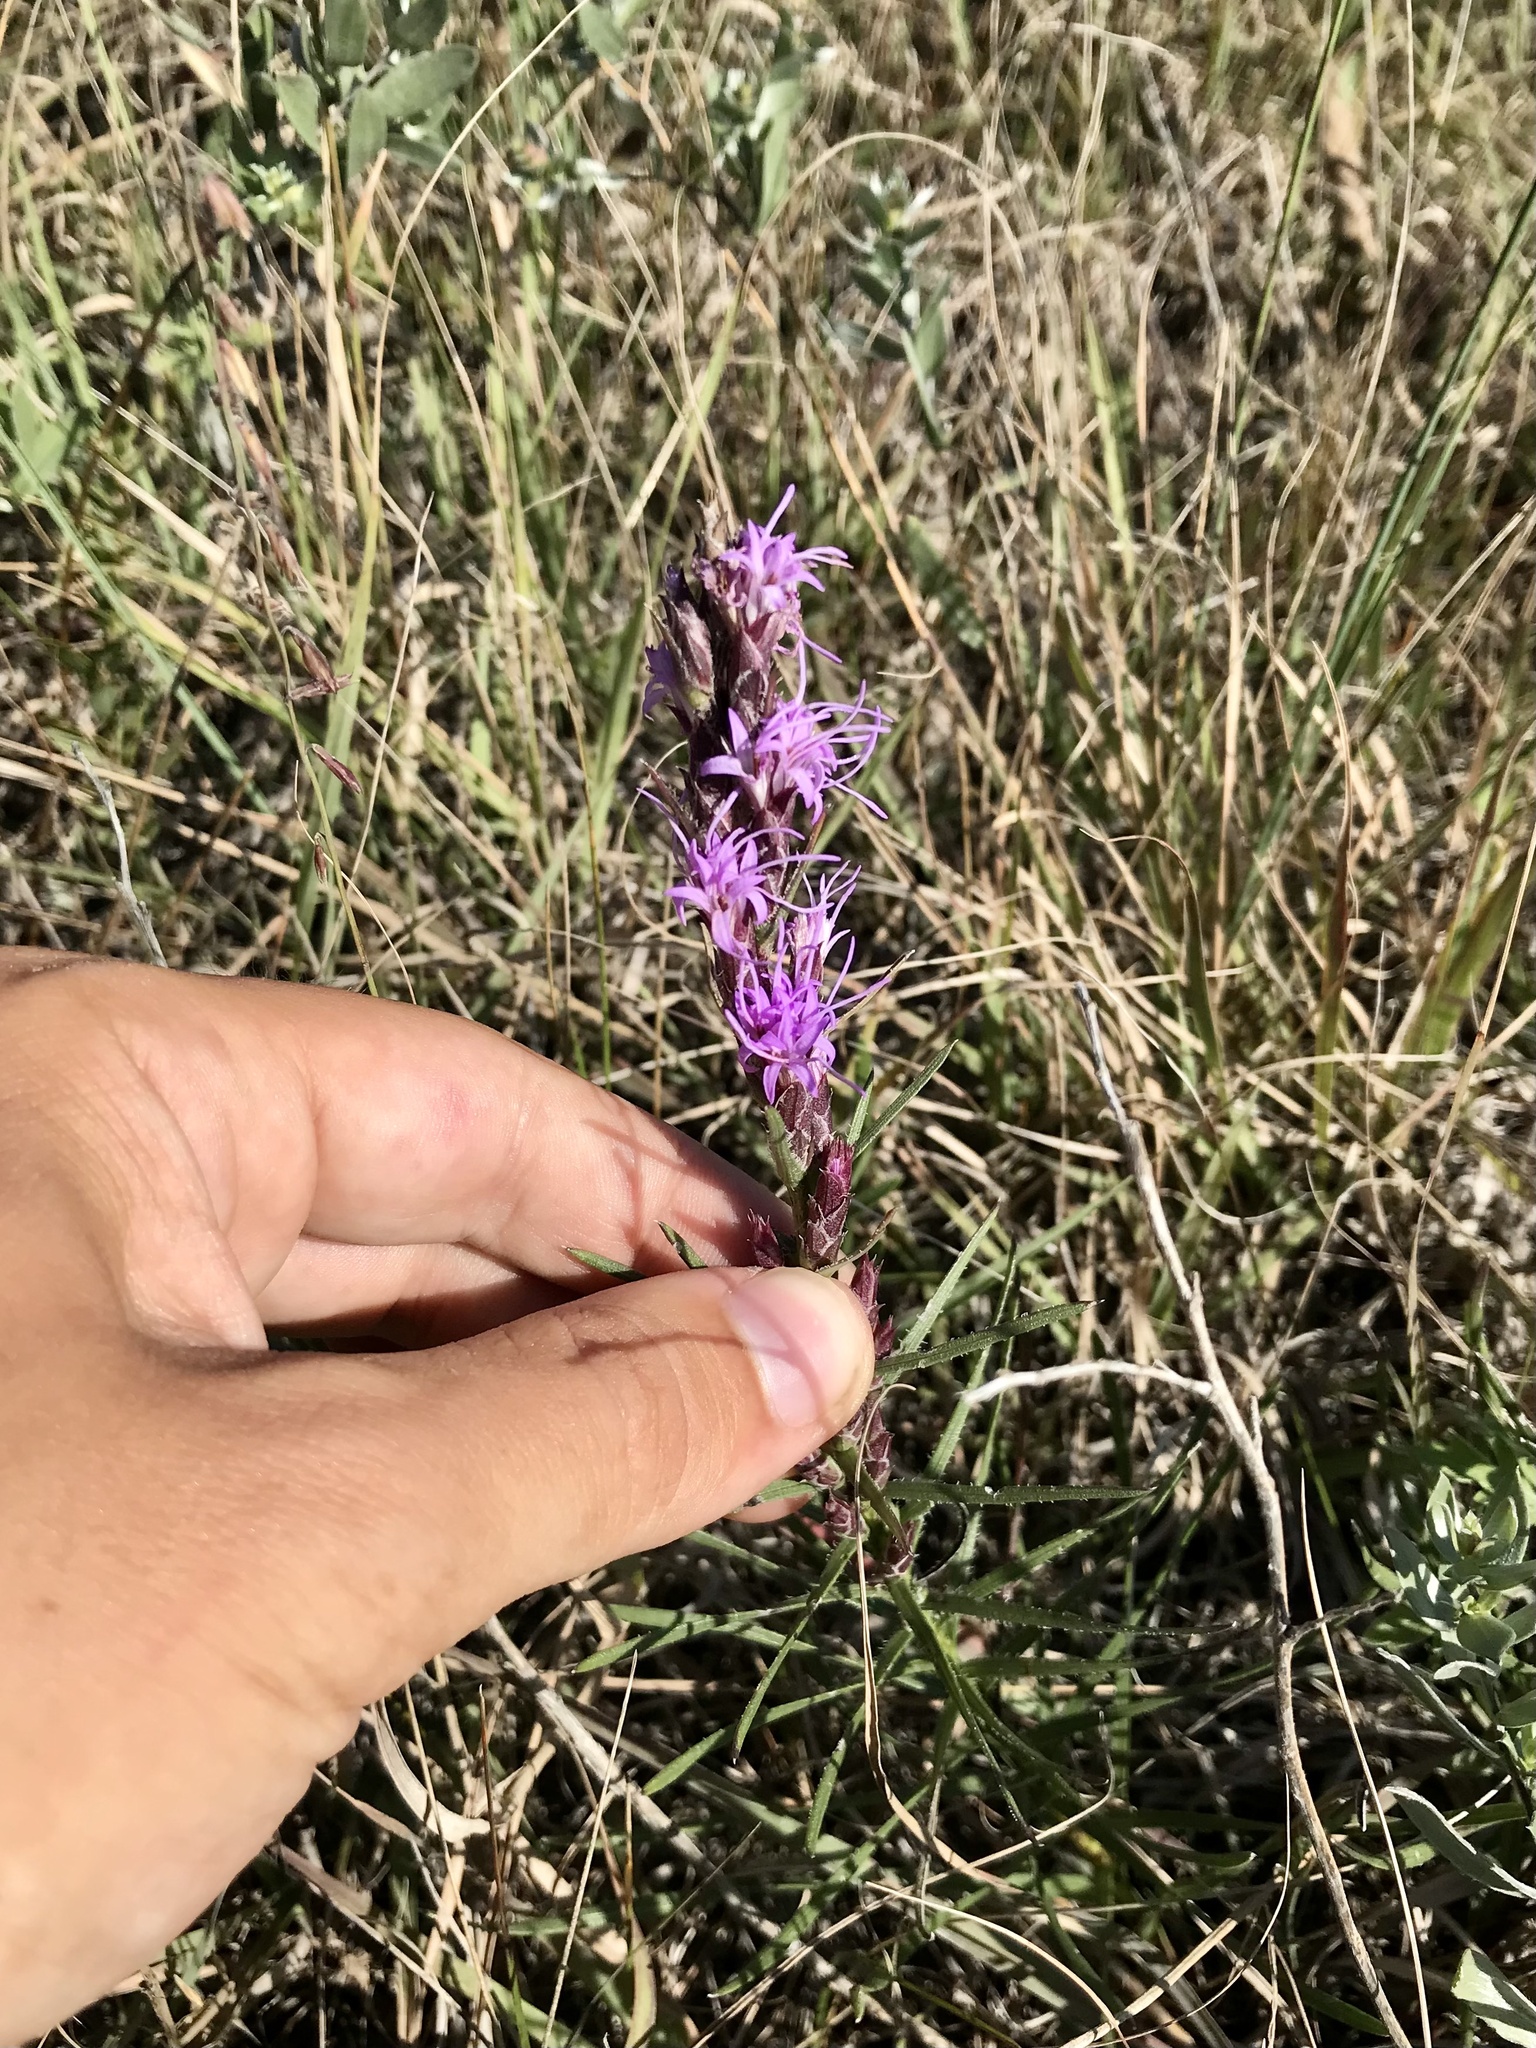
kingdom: Plantae
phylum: Tracheophyta
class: Magnoliopsida
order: Asterales
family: Asteraceae
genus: Liatris
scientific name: Liatris punctata
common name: Dotted gayfeather
